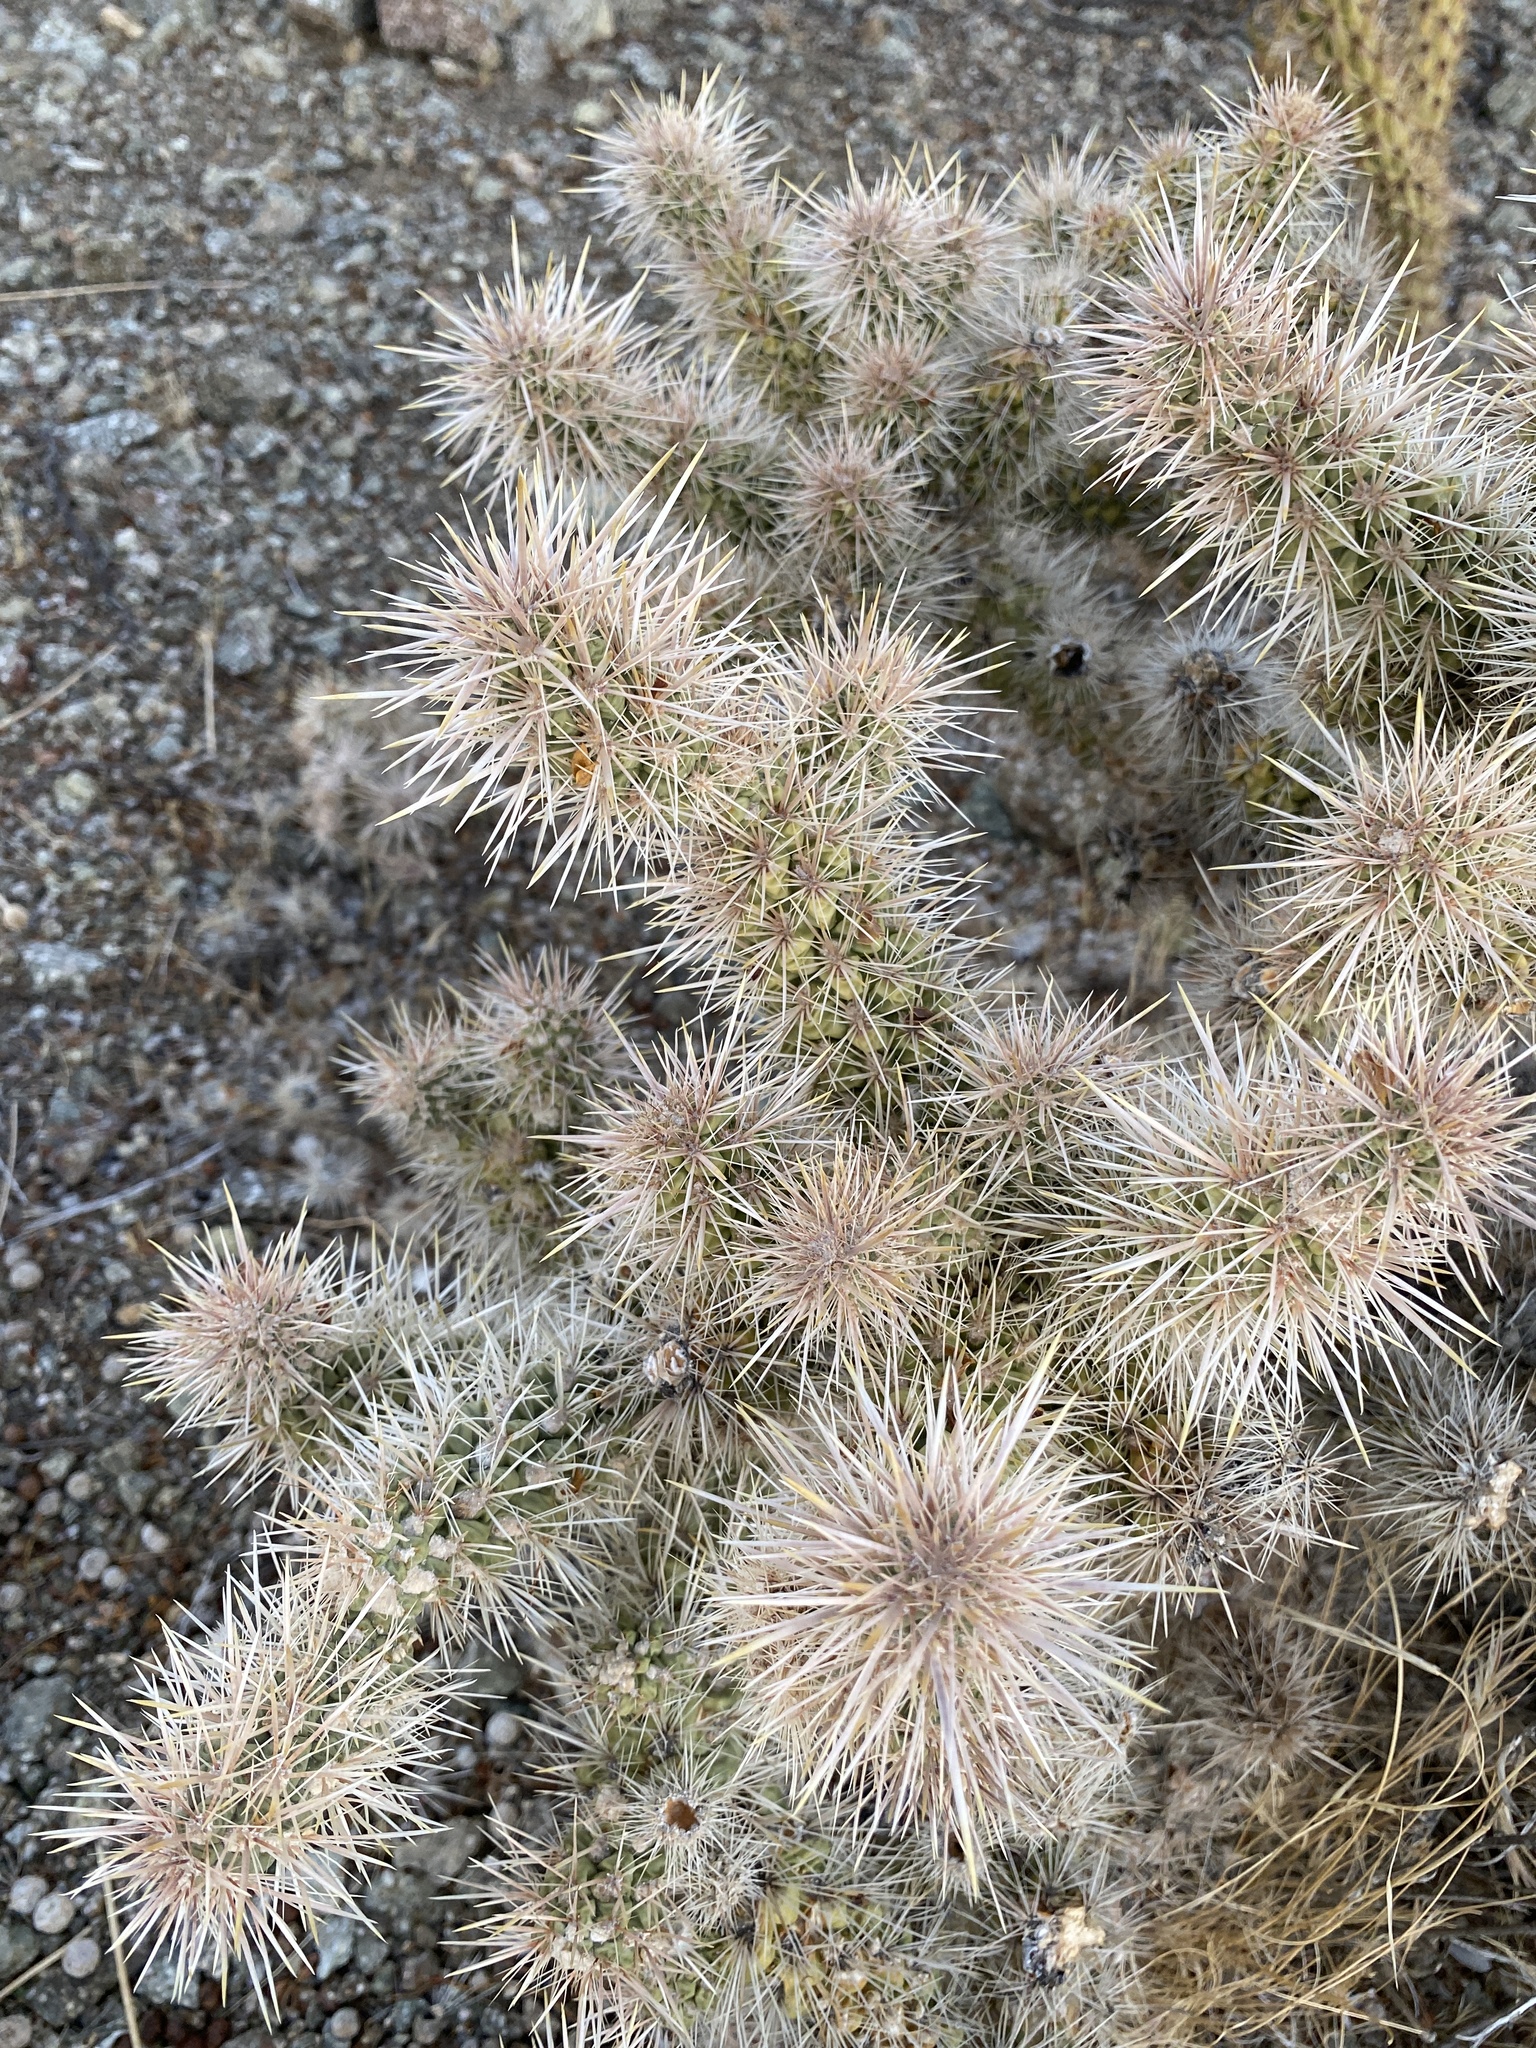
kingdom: Plantae
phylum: Tracheophyta
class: Magnoliopsida
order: Caryophyllales
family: Cactaceae
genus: Cylindropuntia
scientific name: Cylindropuntia echinocarpa
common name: Ground cholla
